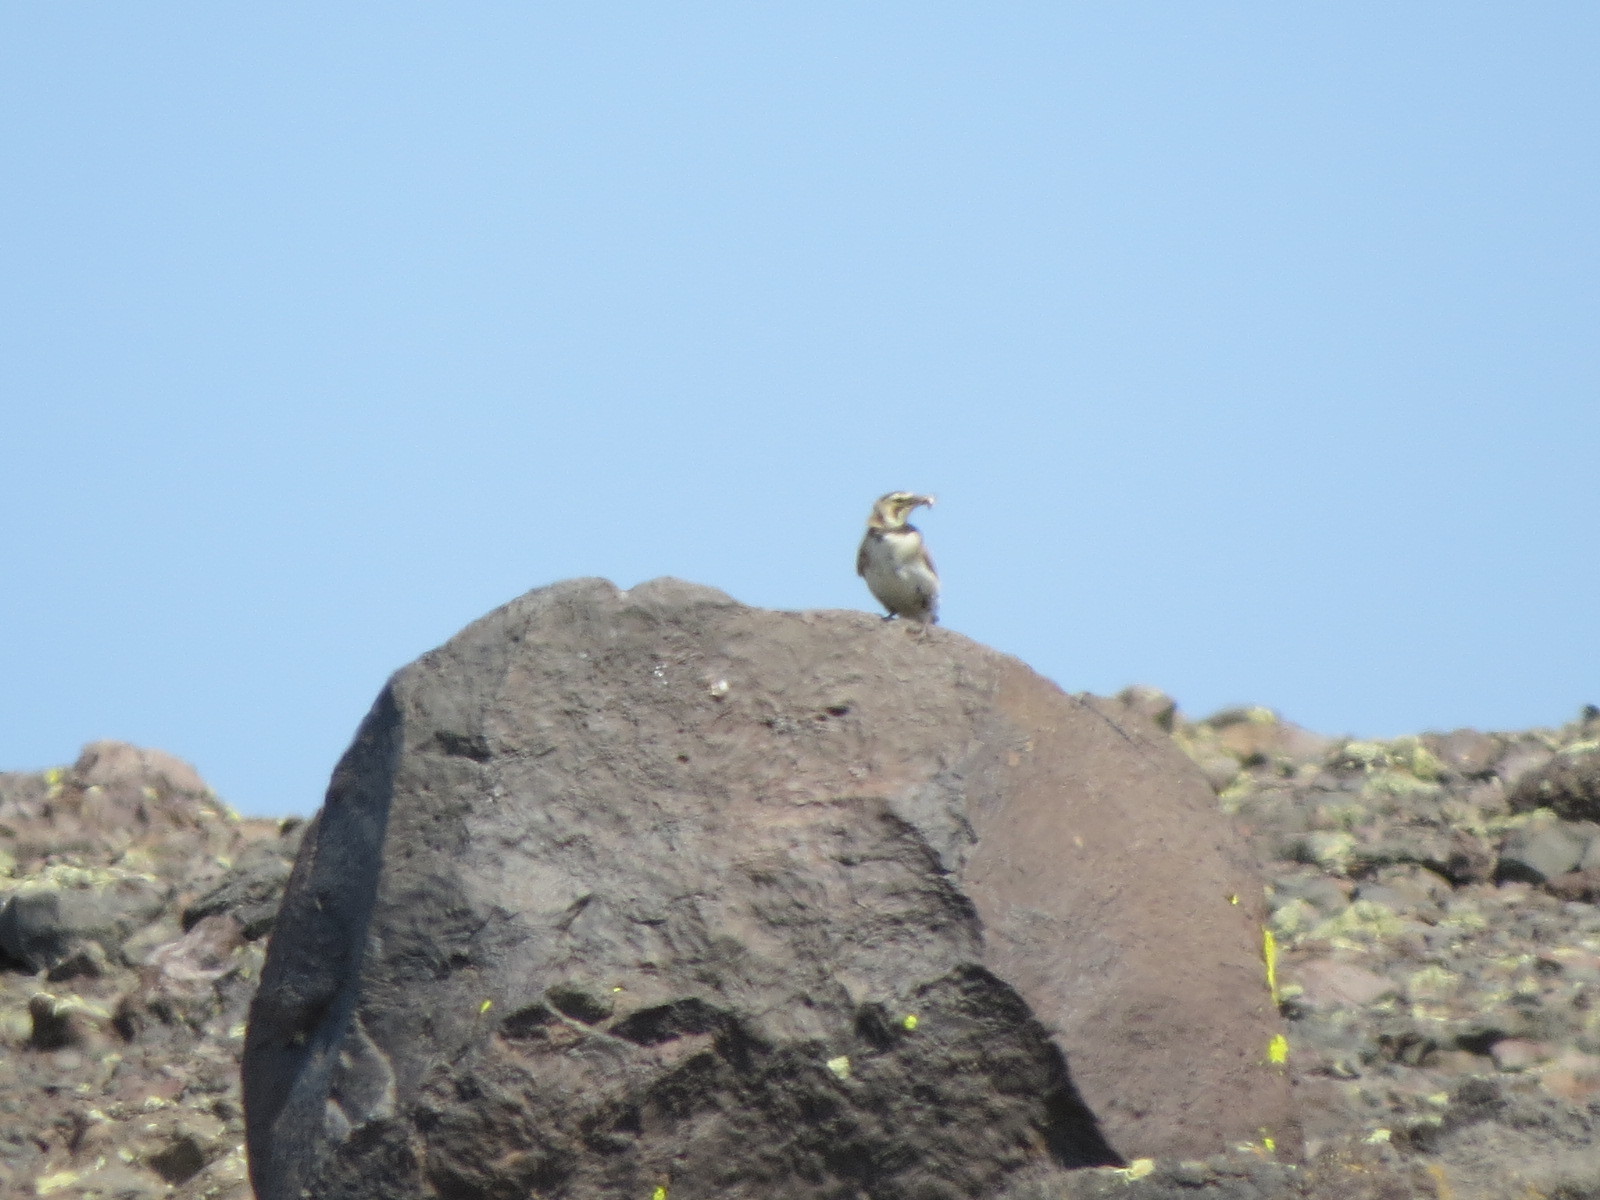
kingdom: Animalia
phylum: Chordata
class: Aves
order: Passeriformes
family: Alaudidae
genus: Eremophila
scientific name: Eremophila alpestris
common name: Horned lark
